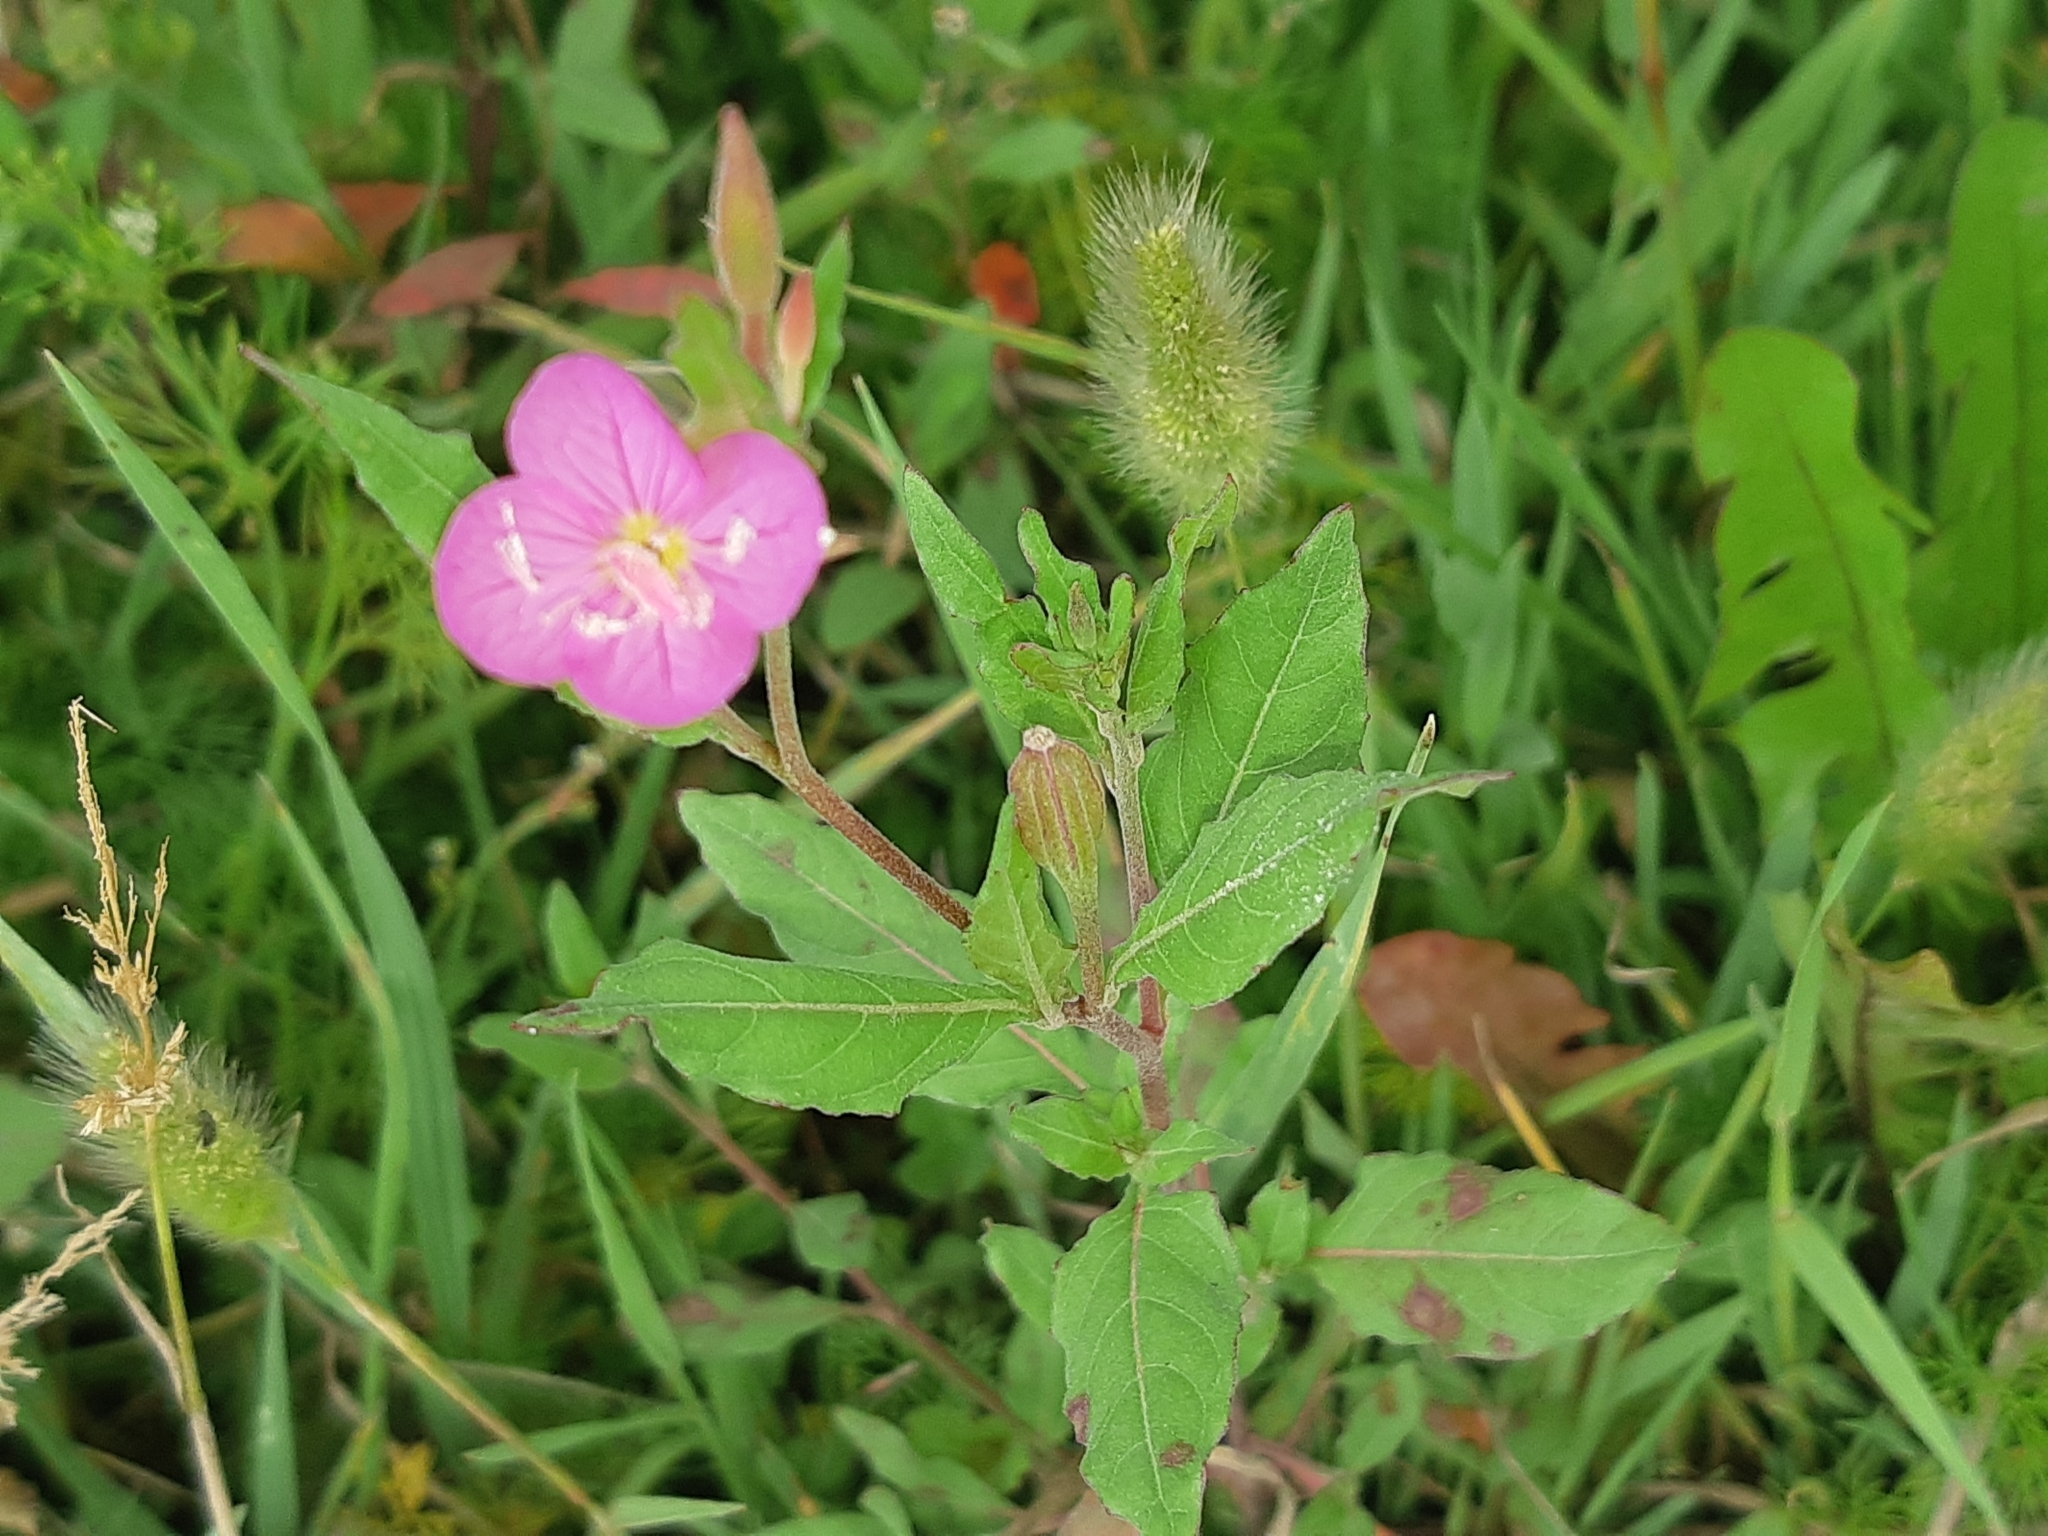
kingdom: Plantae
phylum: Tracheophyta
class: Magnoliopsida
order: Myrtales
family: Onagraceae
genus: Oenothera
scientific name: Oenothera rosea
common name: Rosy evening-primrose
